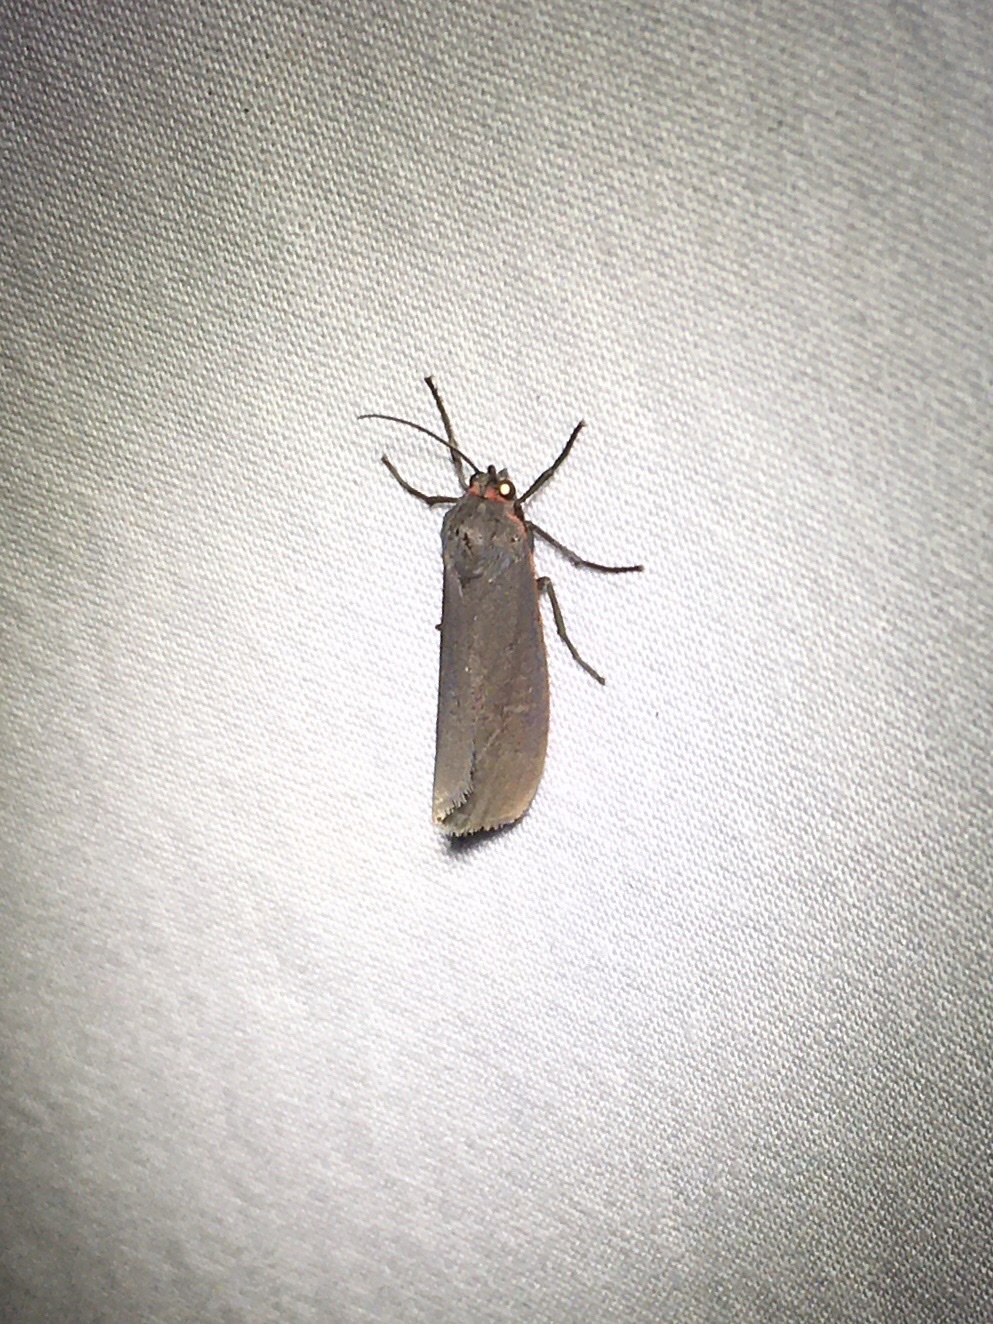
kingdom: Animalia
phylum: Arthropoda
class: Insecta
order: Lepidoptera
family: Erebidae
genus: Virbia
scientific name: Virbia laeta
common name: Joyful holomelina moth
